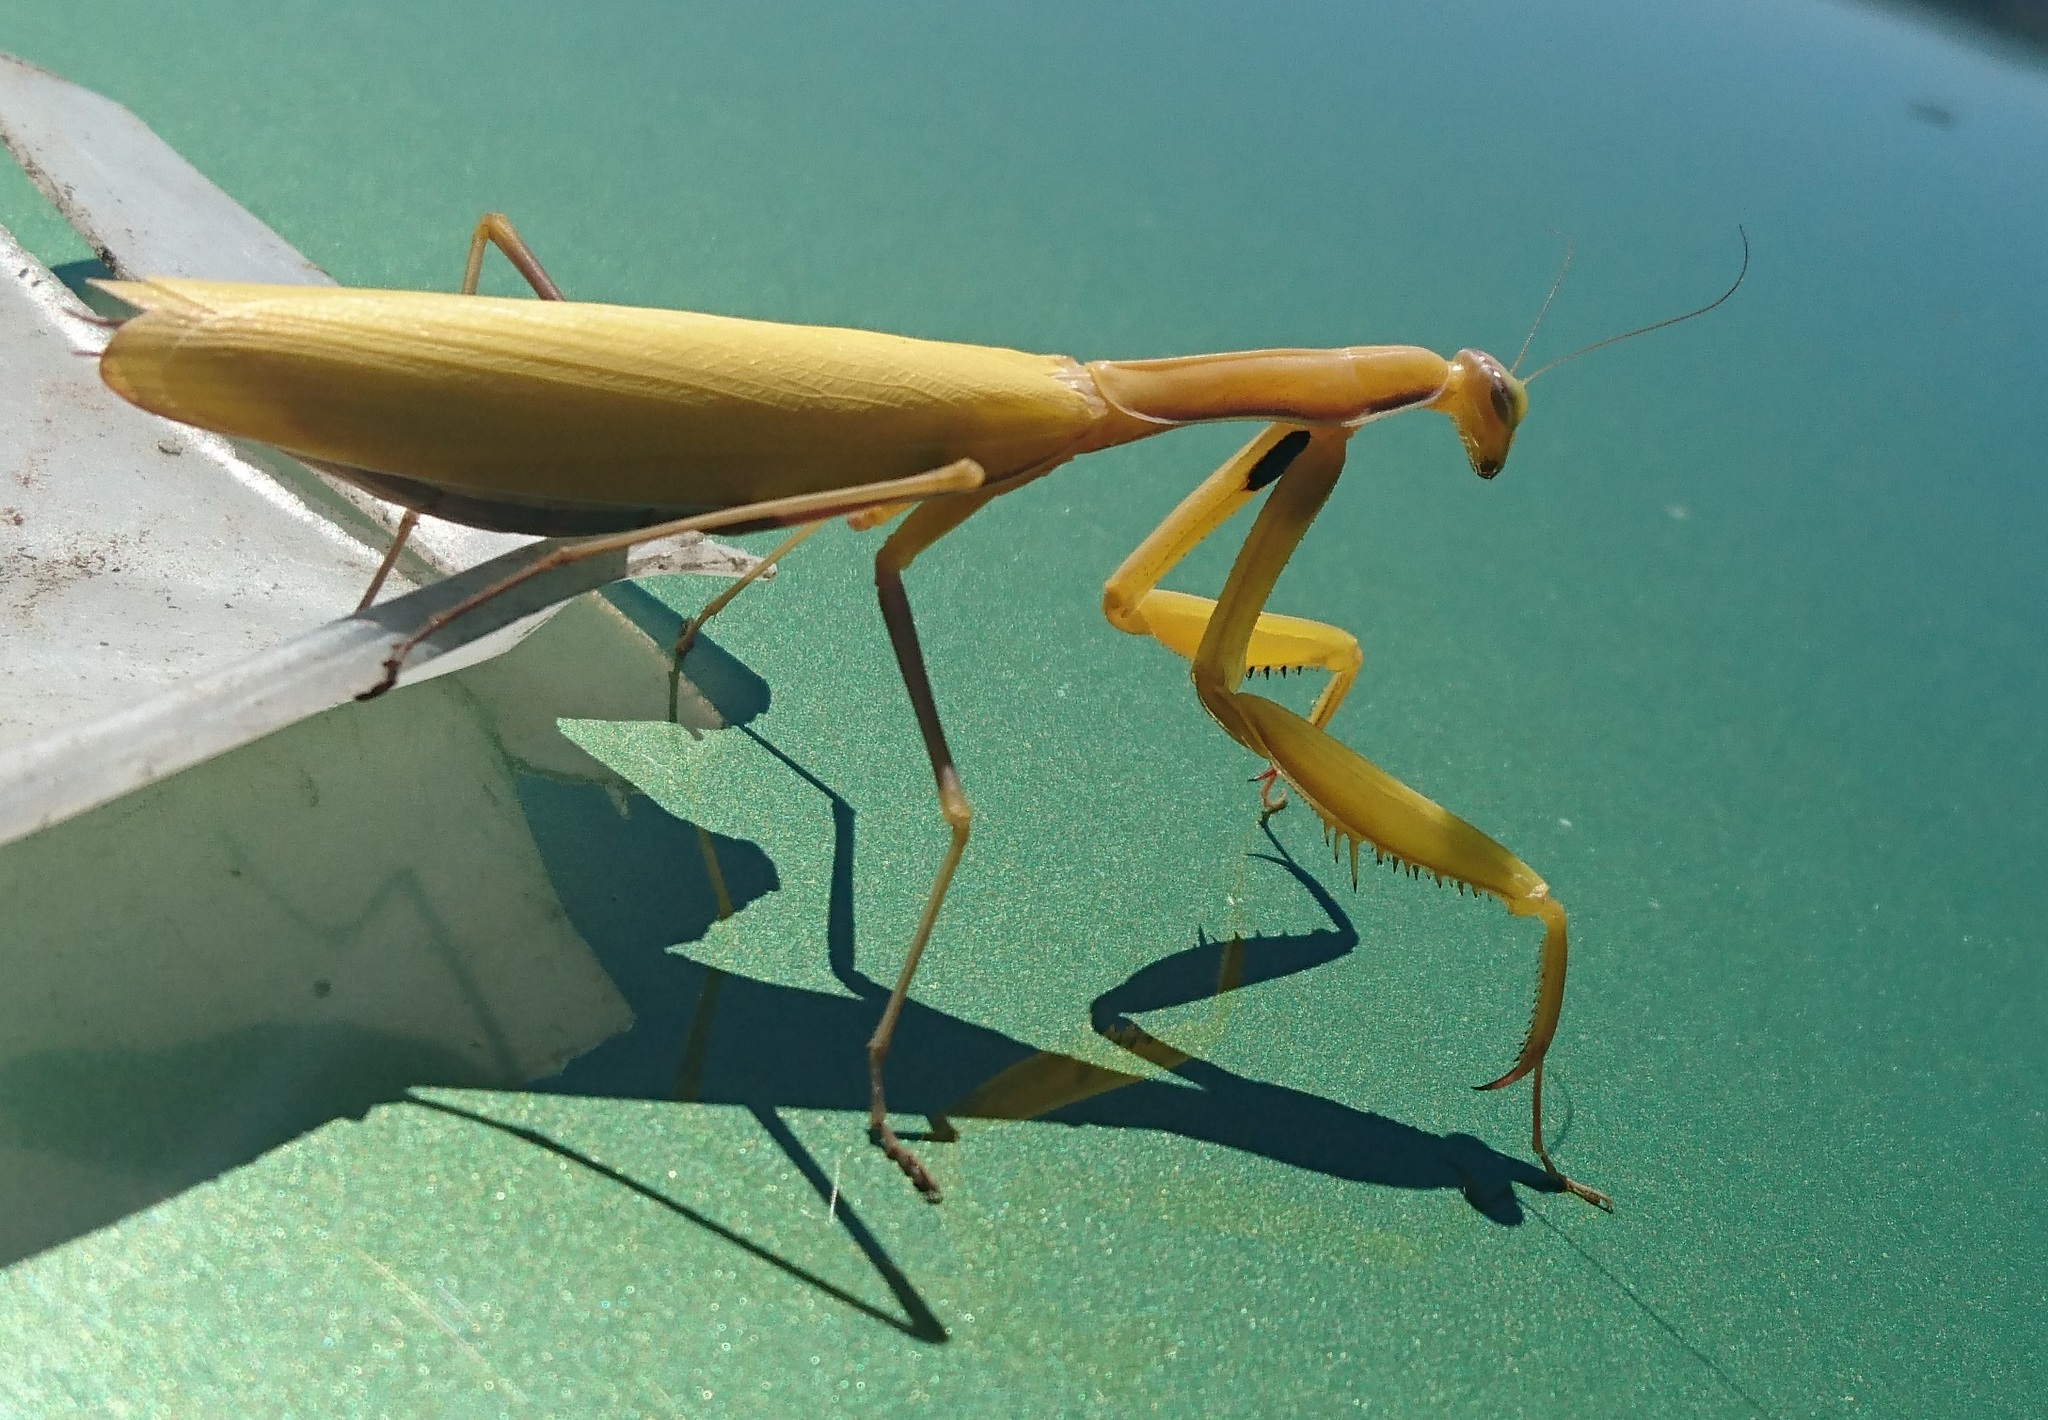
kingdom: Animalia
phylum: Arthropoda
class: Insecta
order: Mantodea
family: Mantidae
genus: Mantis
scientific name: Mantis religiosa
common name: Praying mantis
